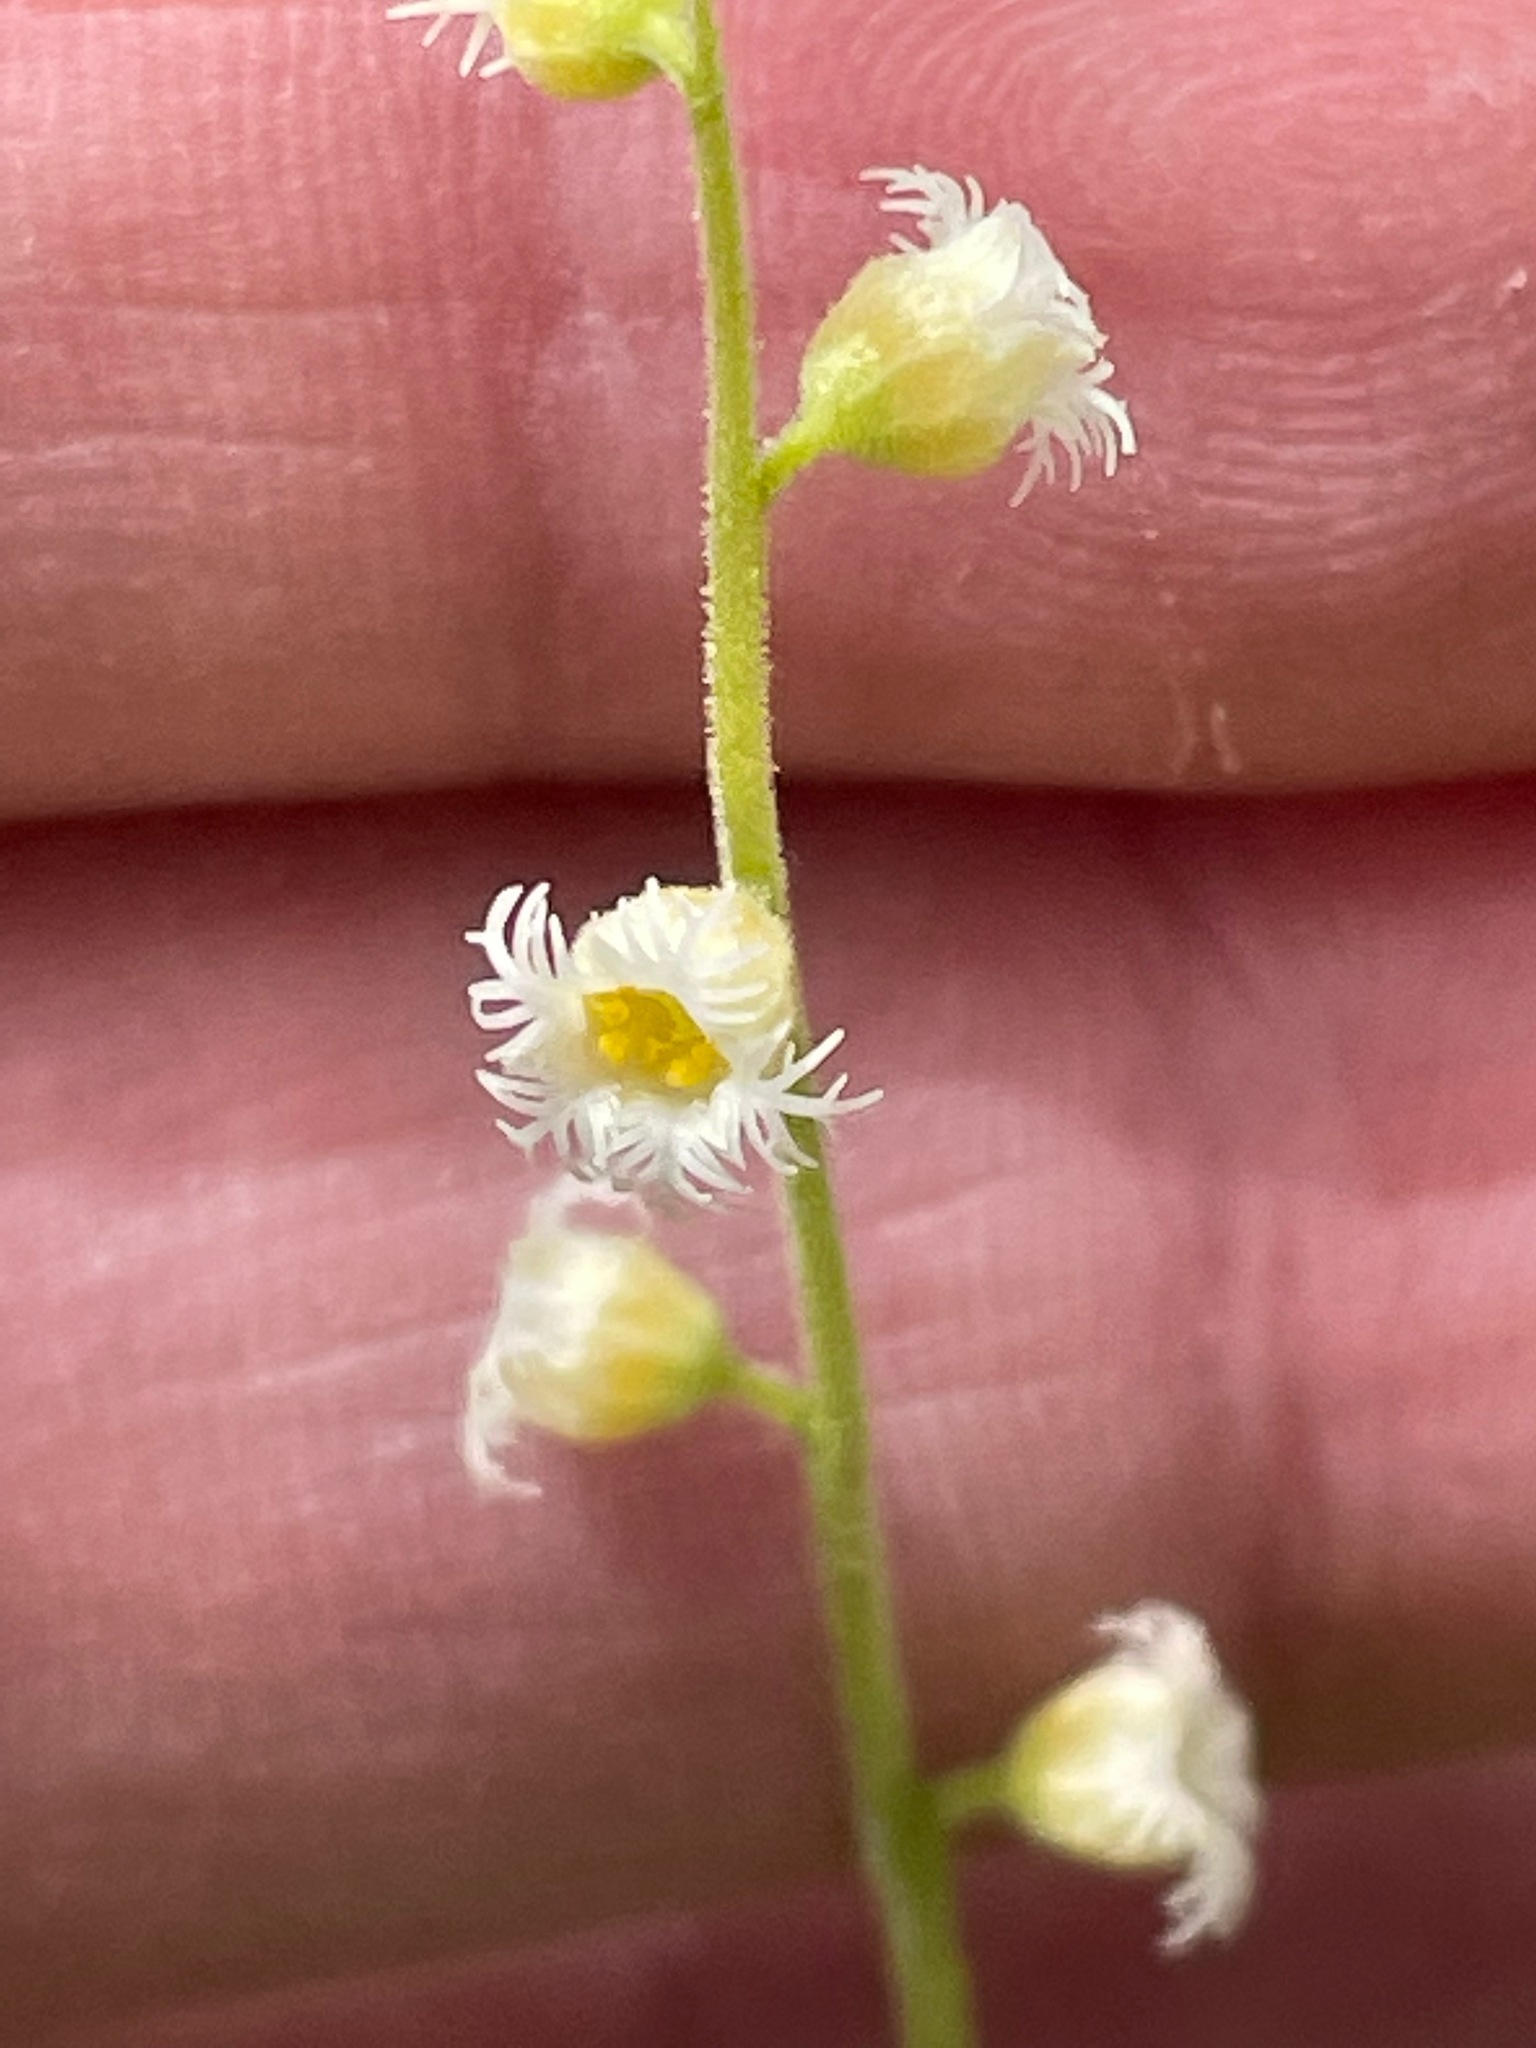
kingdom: Plantae
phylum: Tracheophyta
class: Magnoliopsida
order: Saxifragales
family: Saxifragaceae
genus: Mitella
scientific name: Mitella diphylla
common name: Coolwort
